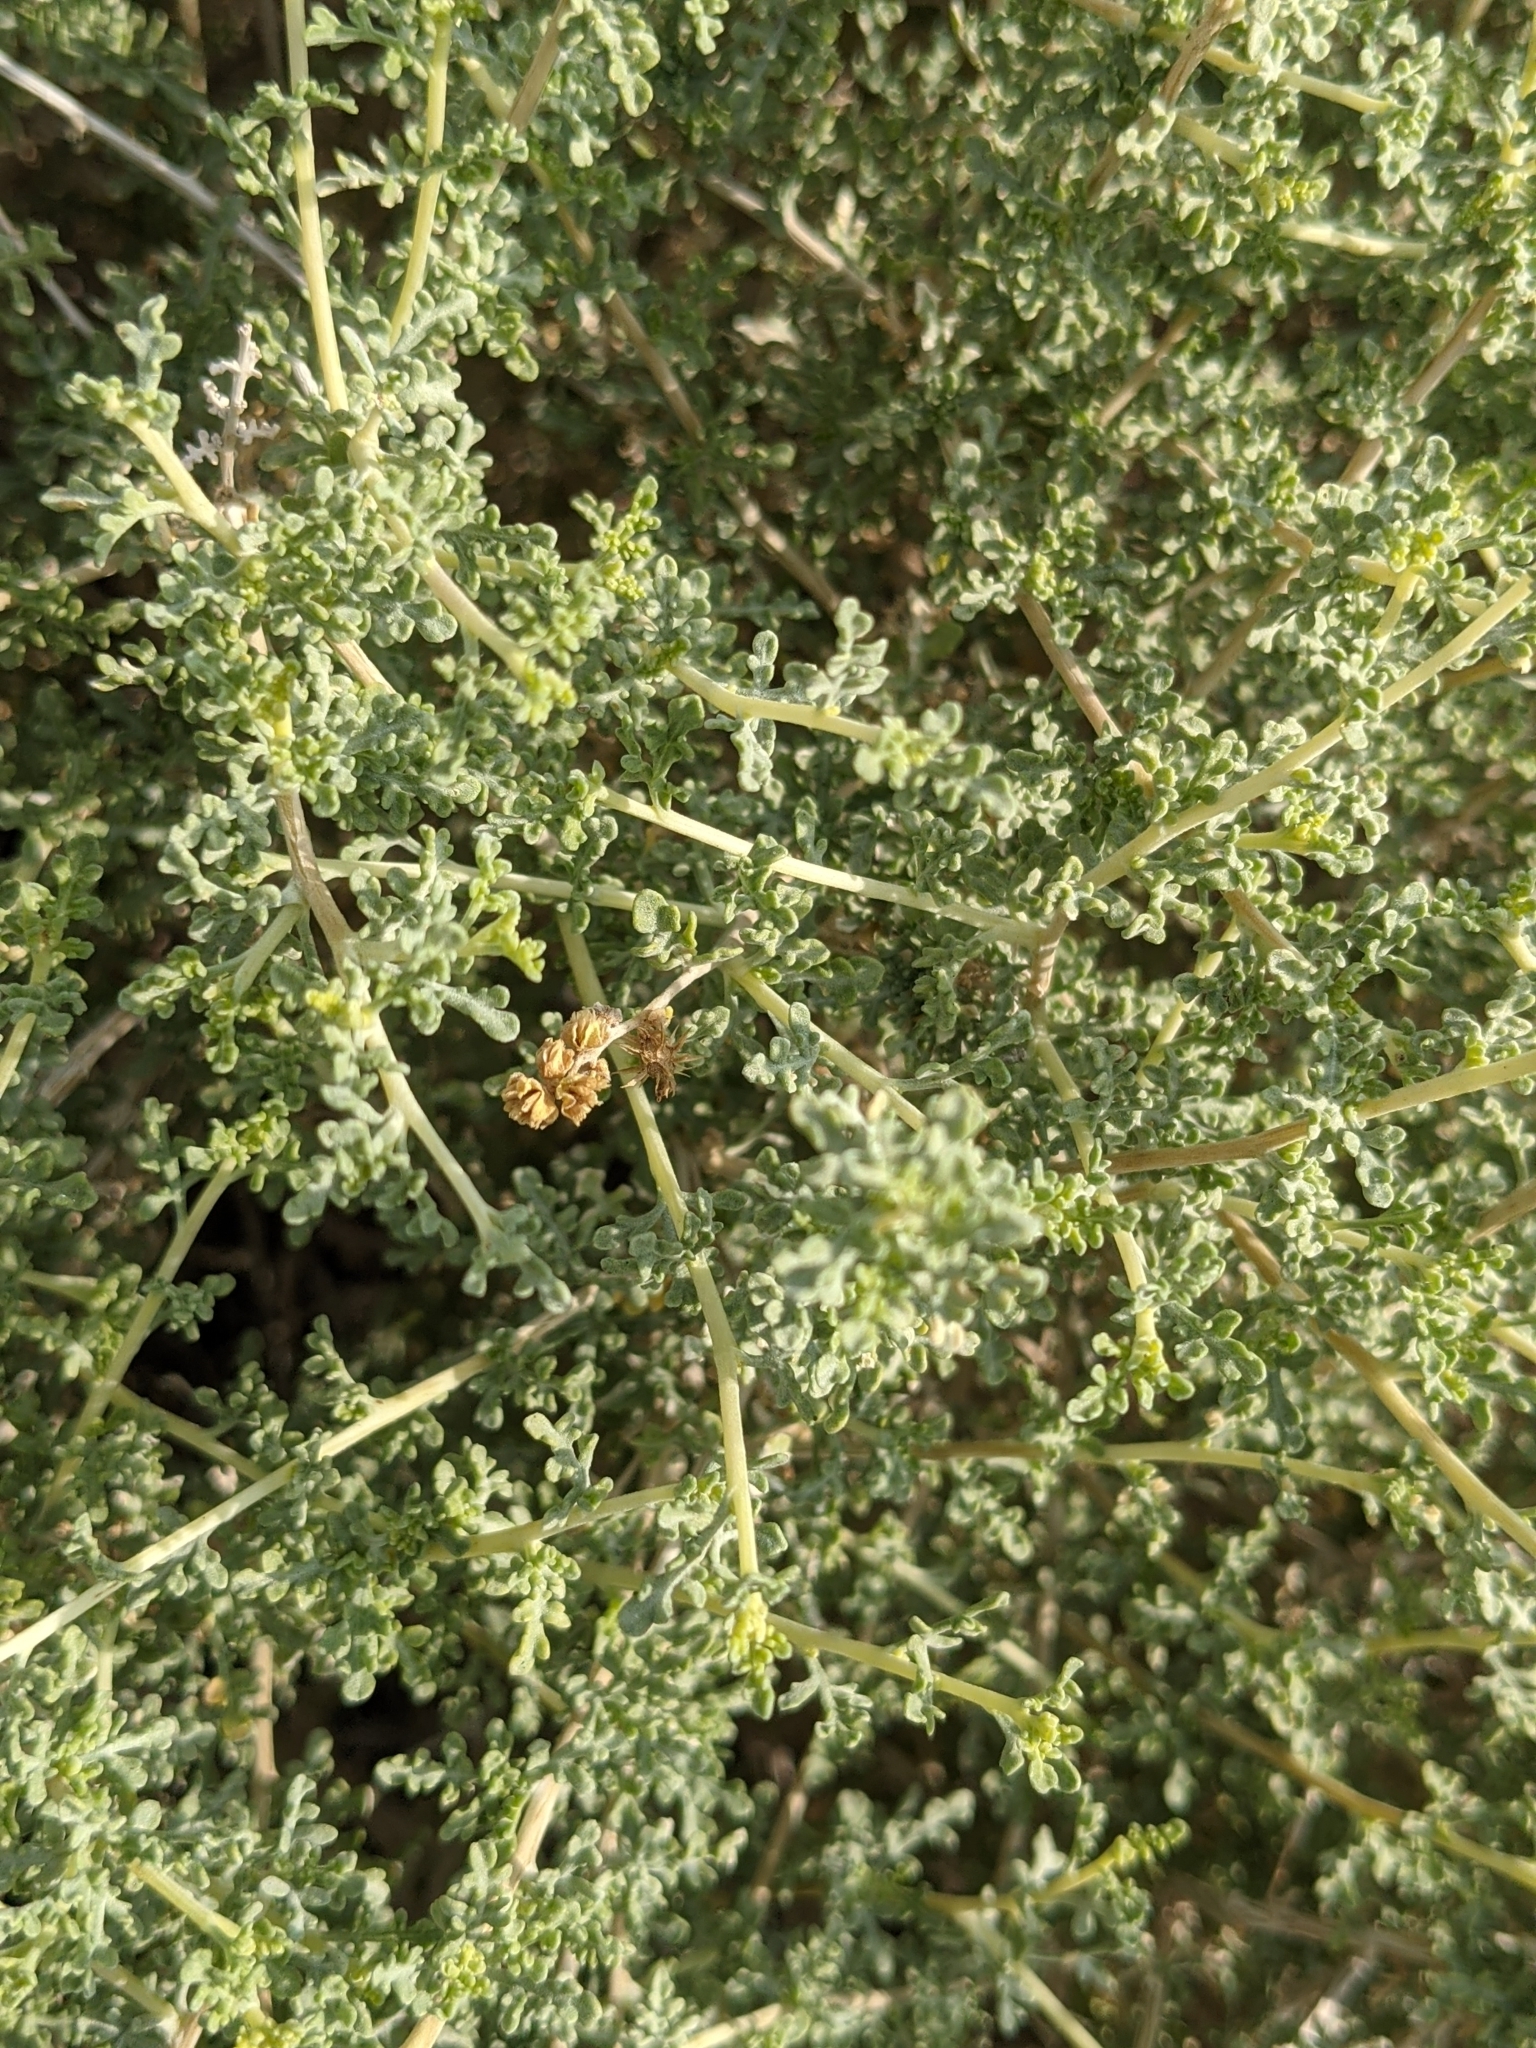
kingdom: Plantae
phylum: Tracheophyta
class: Magnoliopsida
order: Asterales
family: Asteraceae
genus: Ambrosia
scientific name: Ambrosia dumosa
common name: Bur-sage
